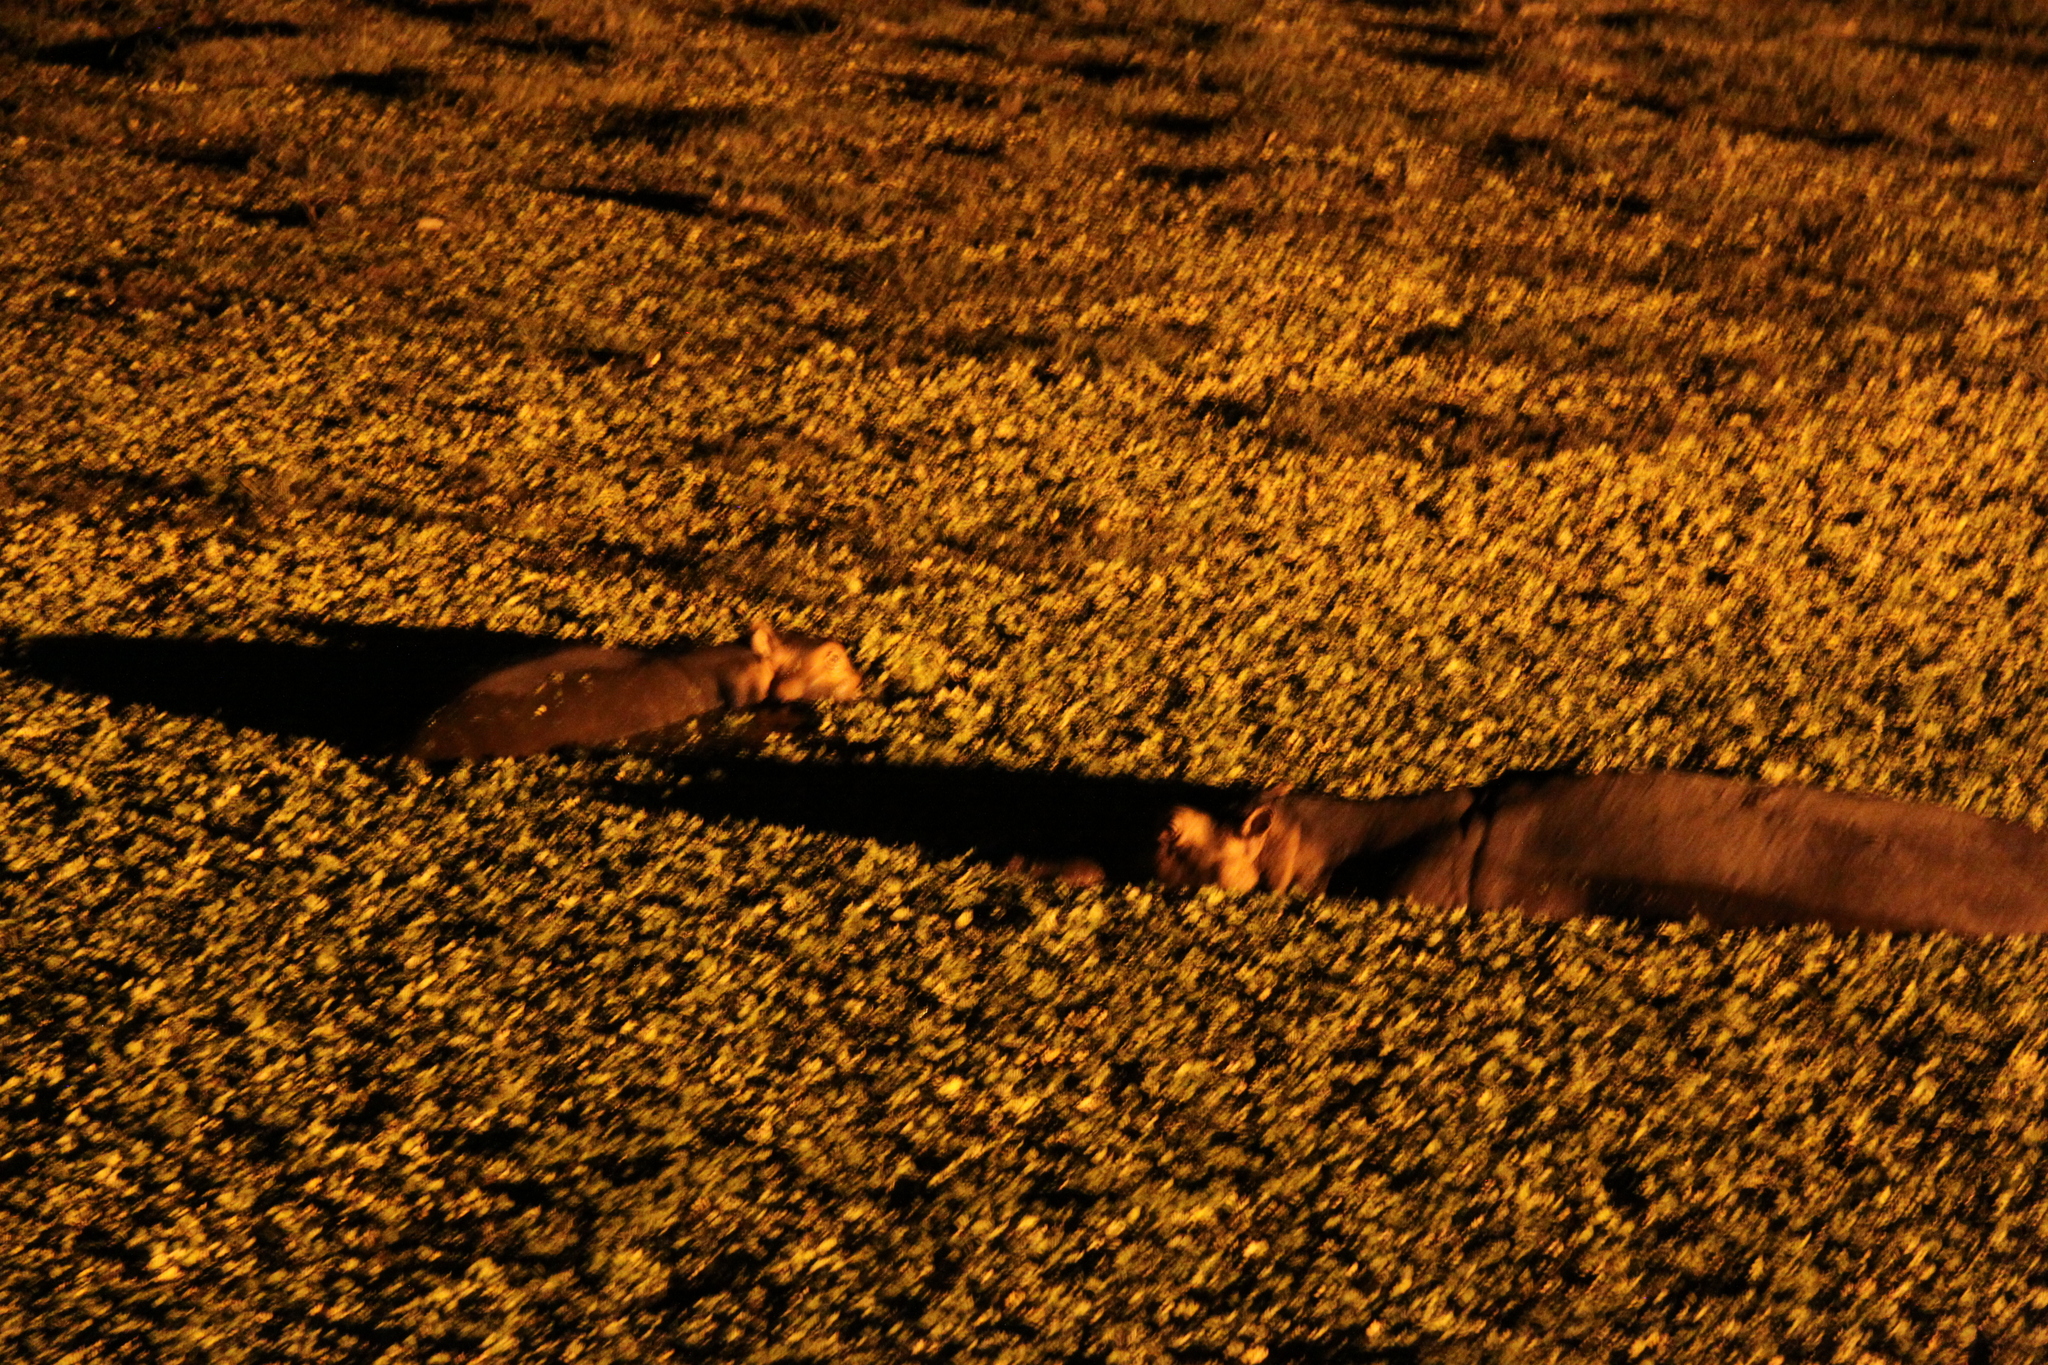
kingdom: Animalia
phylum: Chordata
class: Mammalia
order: Artiodactyla
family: Hippopotamidae
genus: Hippopotamus
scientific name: Hippopotamus amphibius
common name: Common hippopotamus
